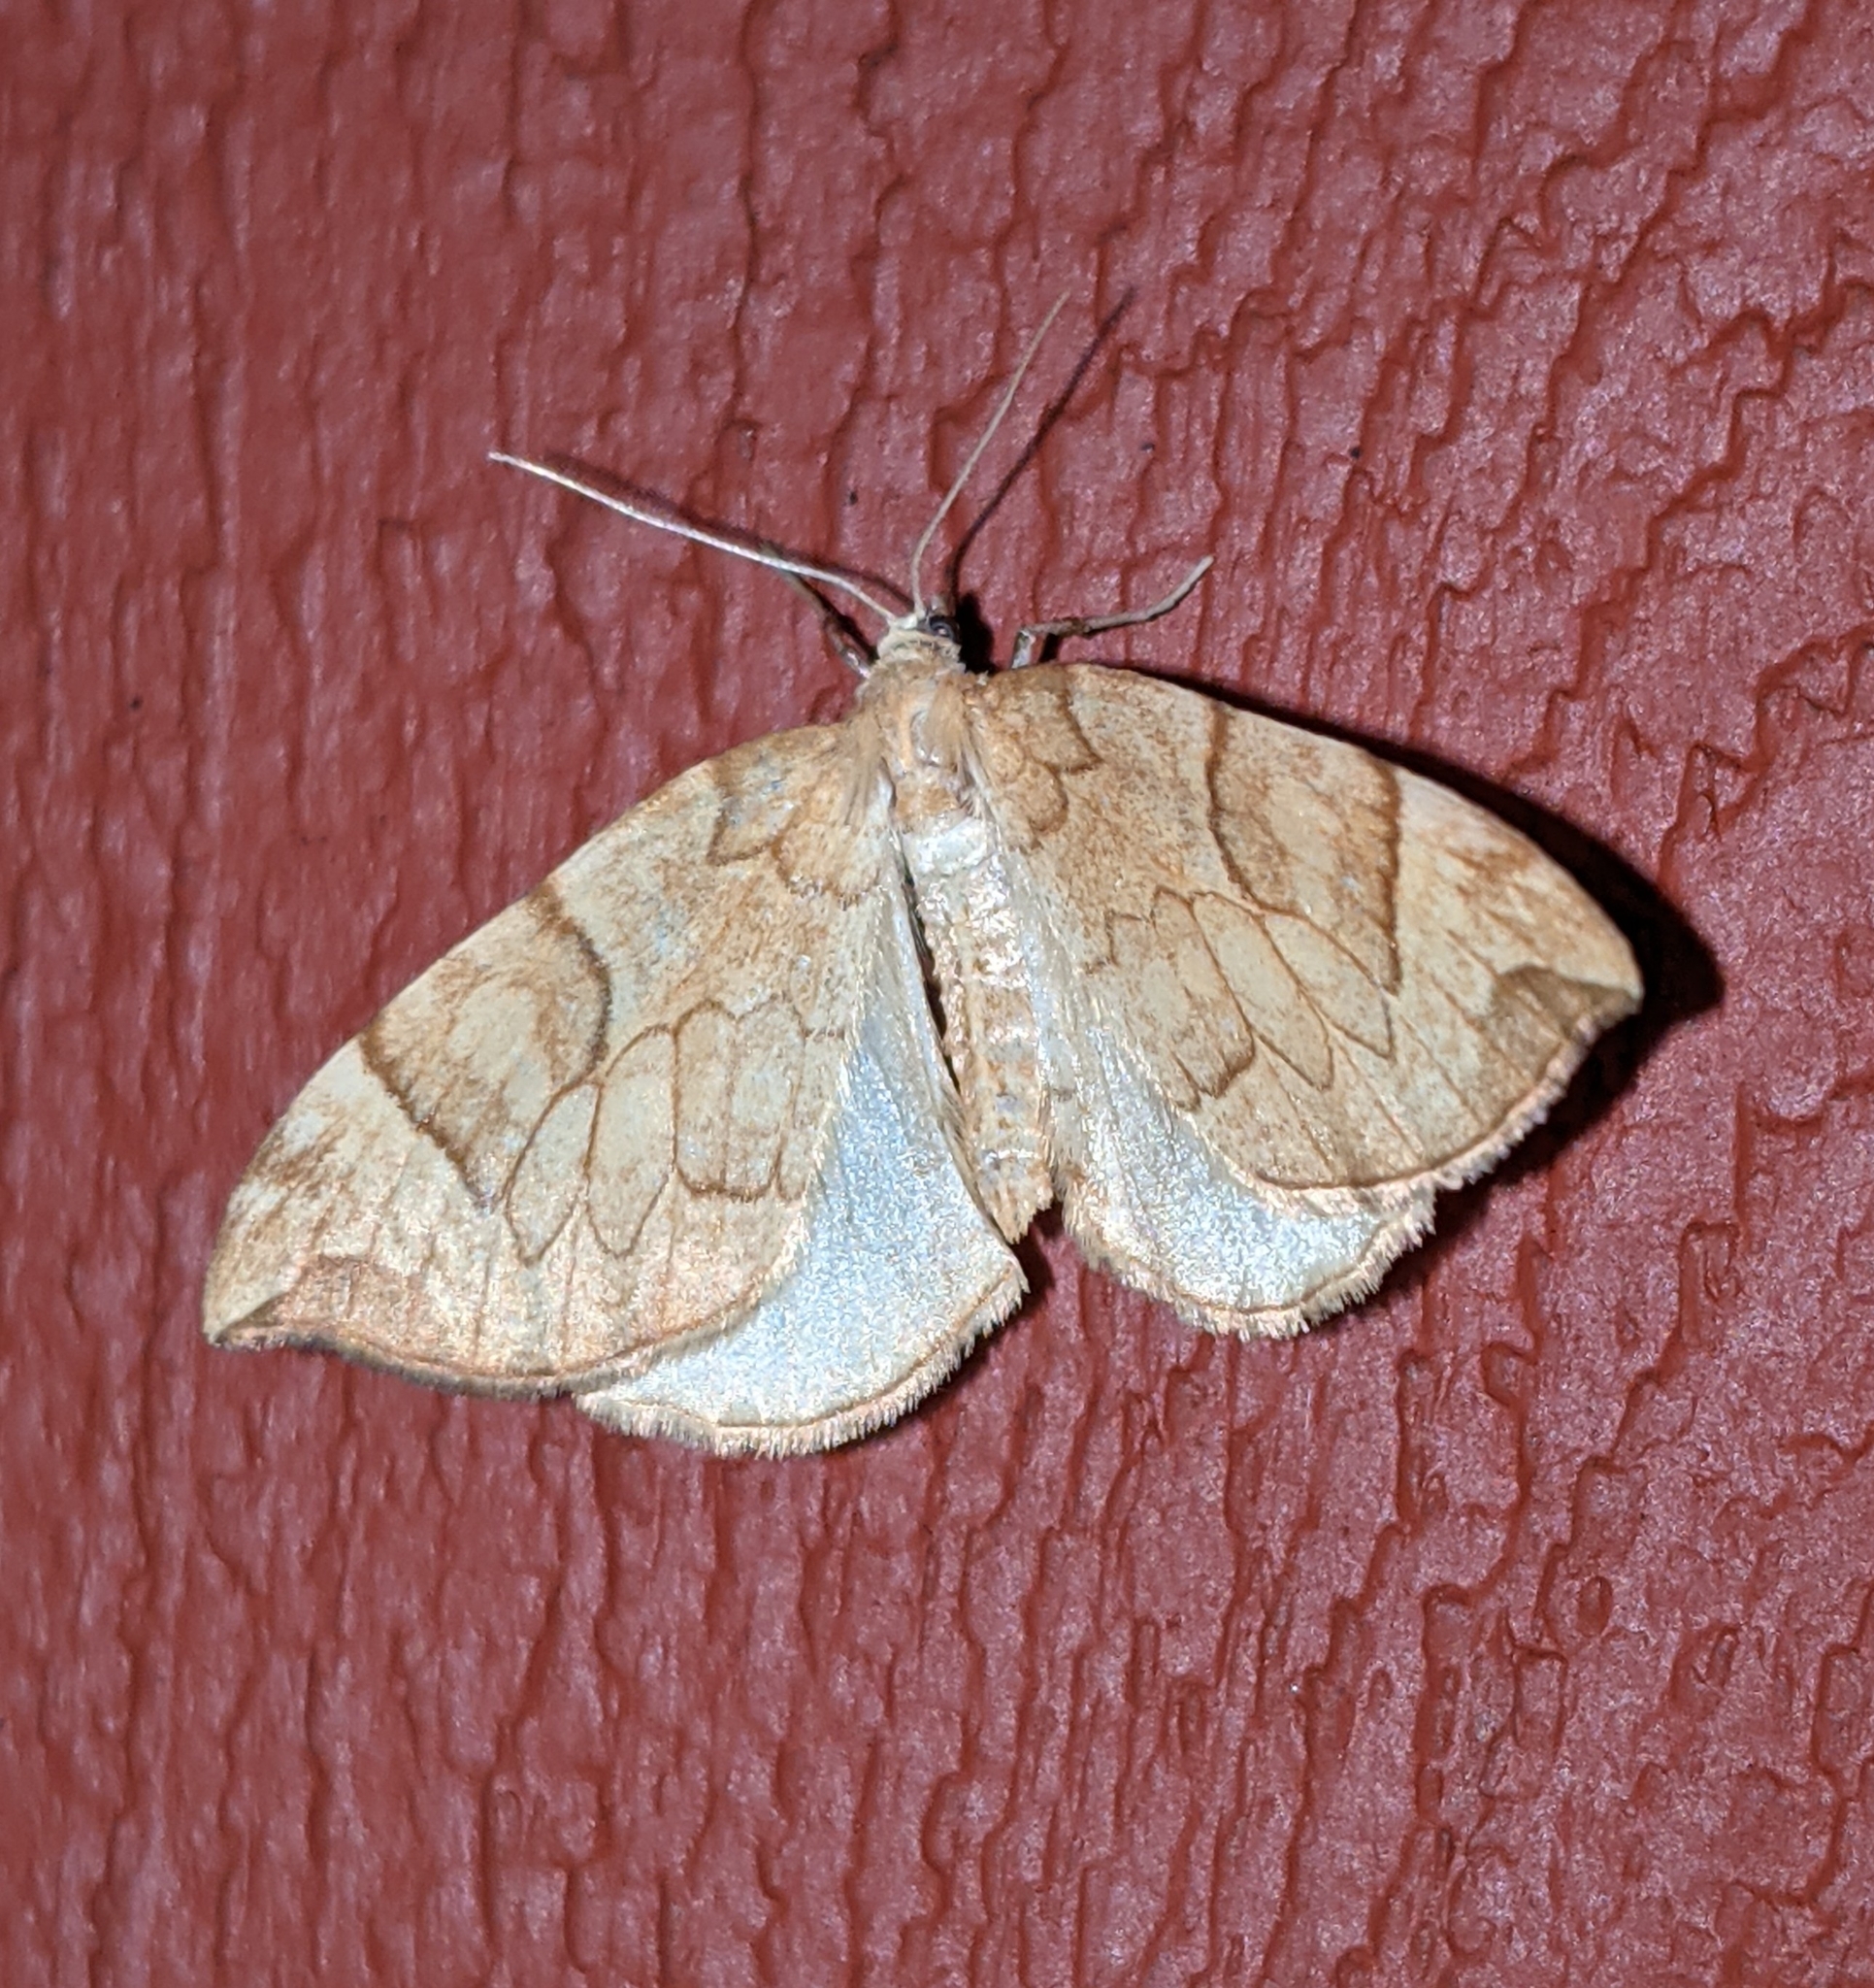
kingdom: Animalia
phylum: Arthropoda
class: Insecta
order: Lepidoptera
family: Geometridae
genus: Eulithis
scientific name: Eulithis propulsata
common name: Currant eulithis moth
